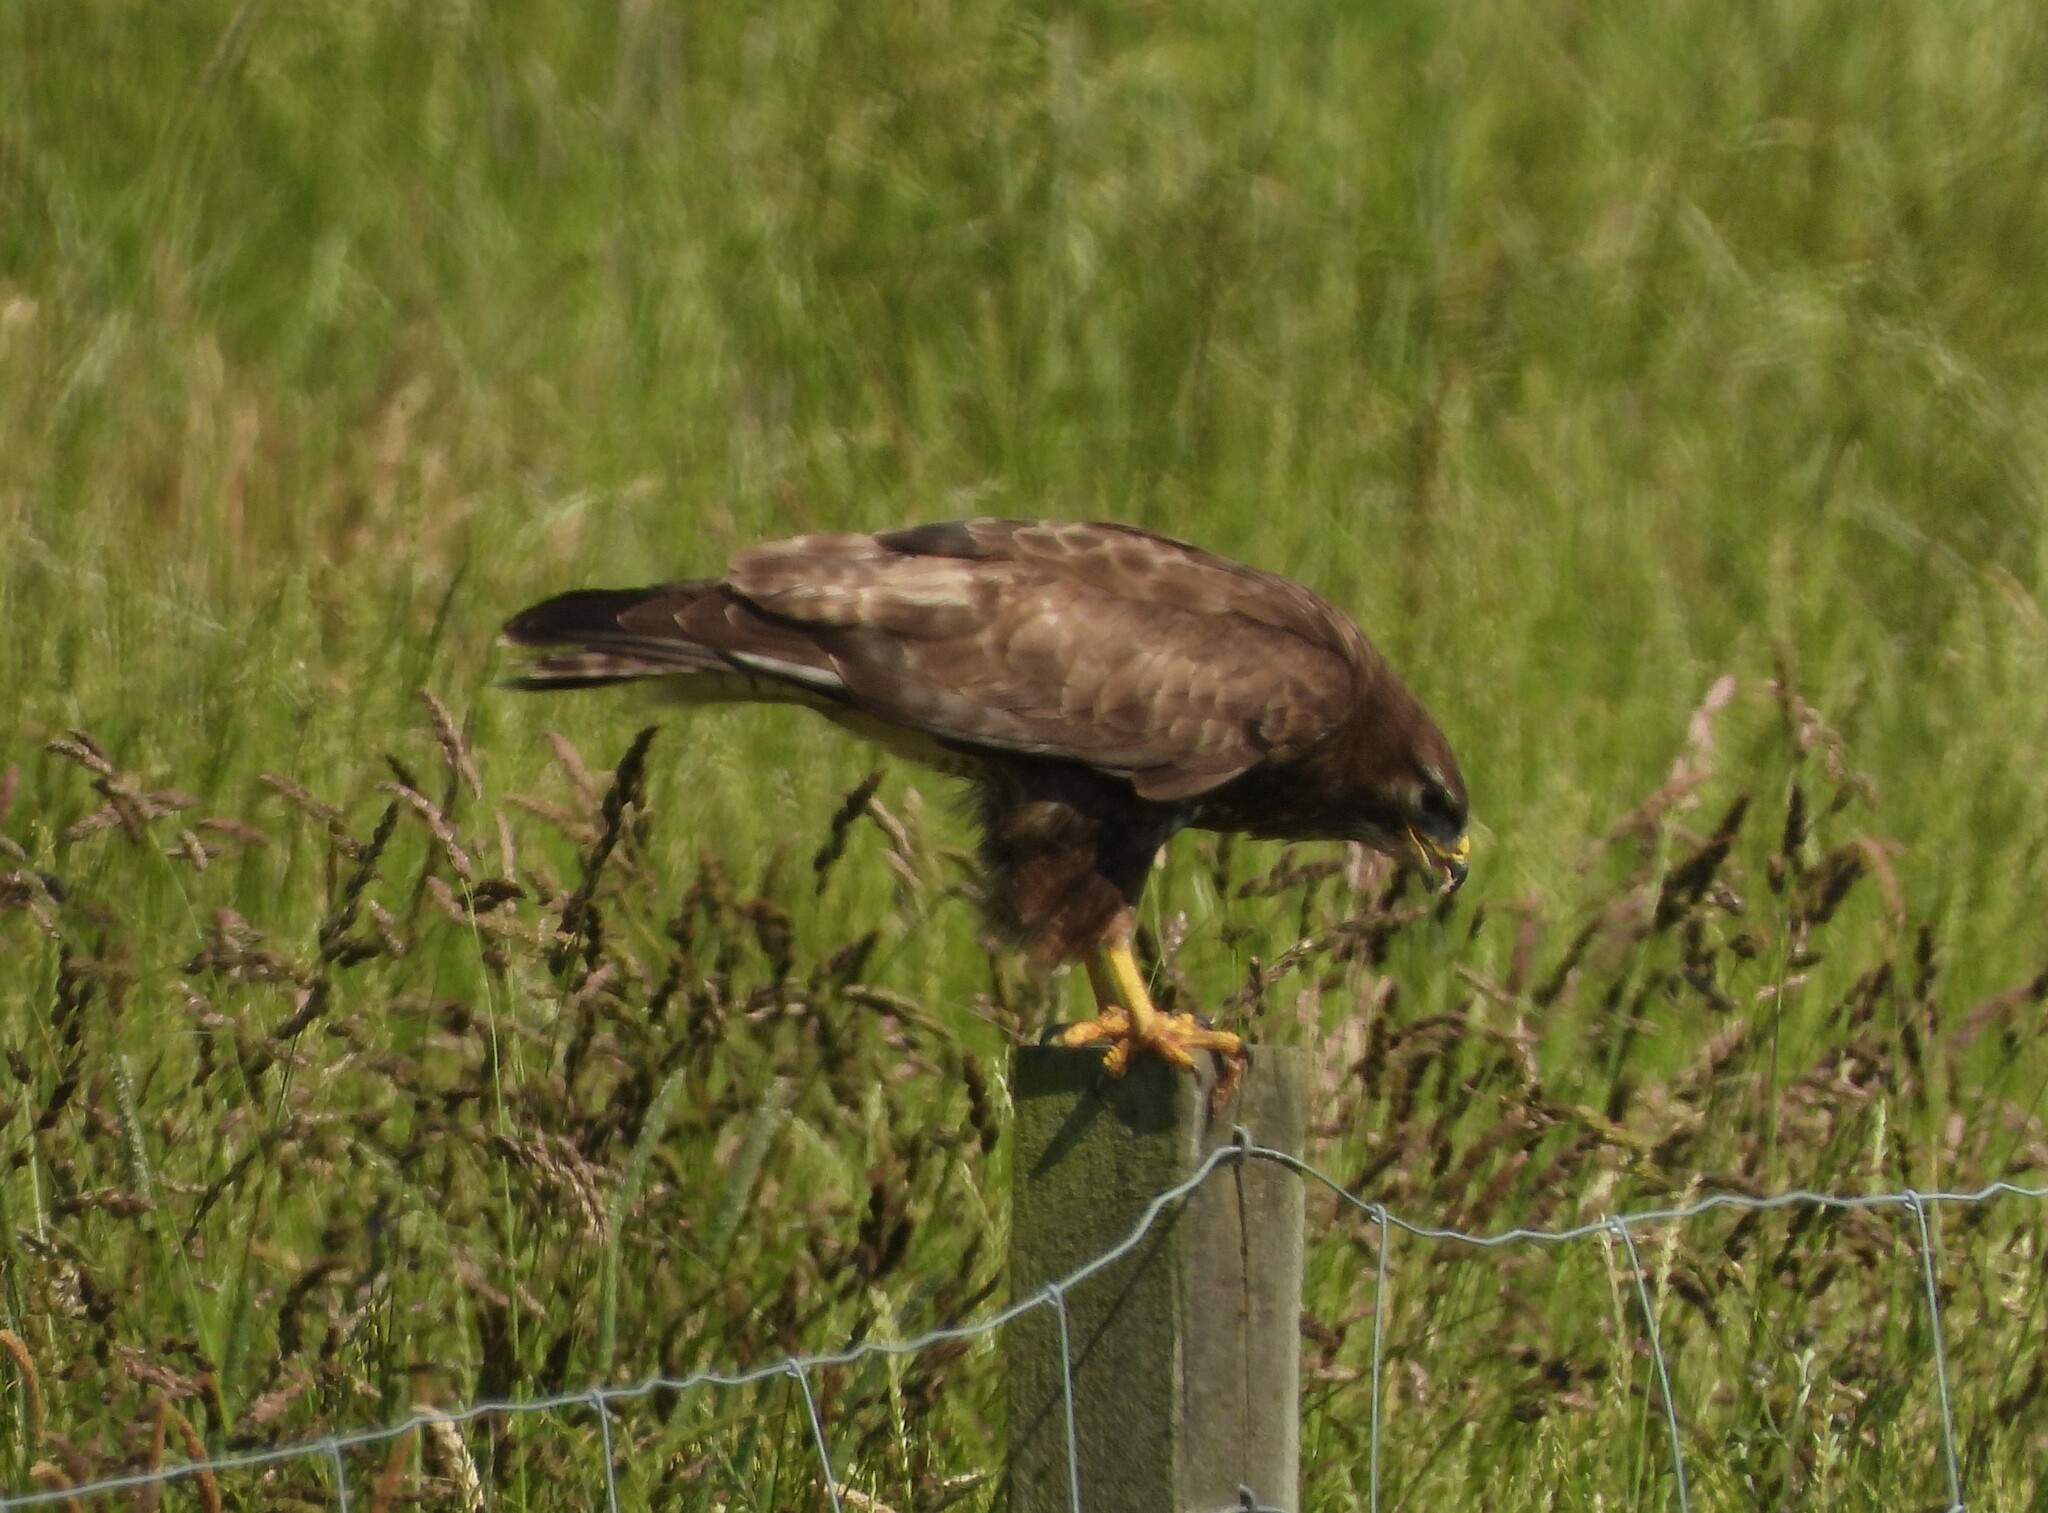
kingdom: Animalia
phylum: Chordata
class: Aves
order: Accipitriformes
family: Accipitridae
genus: Buteo
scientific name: Buteo buteo
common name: Common buzzard
